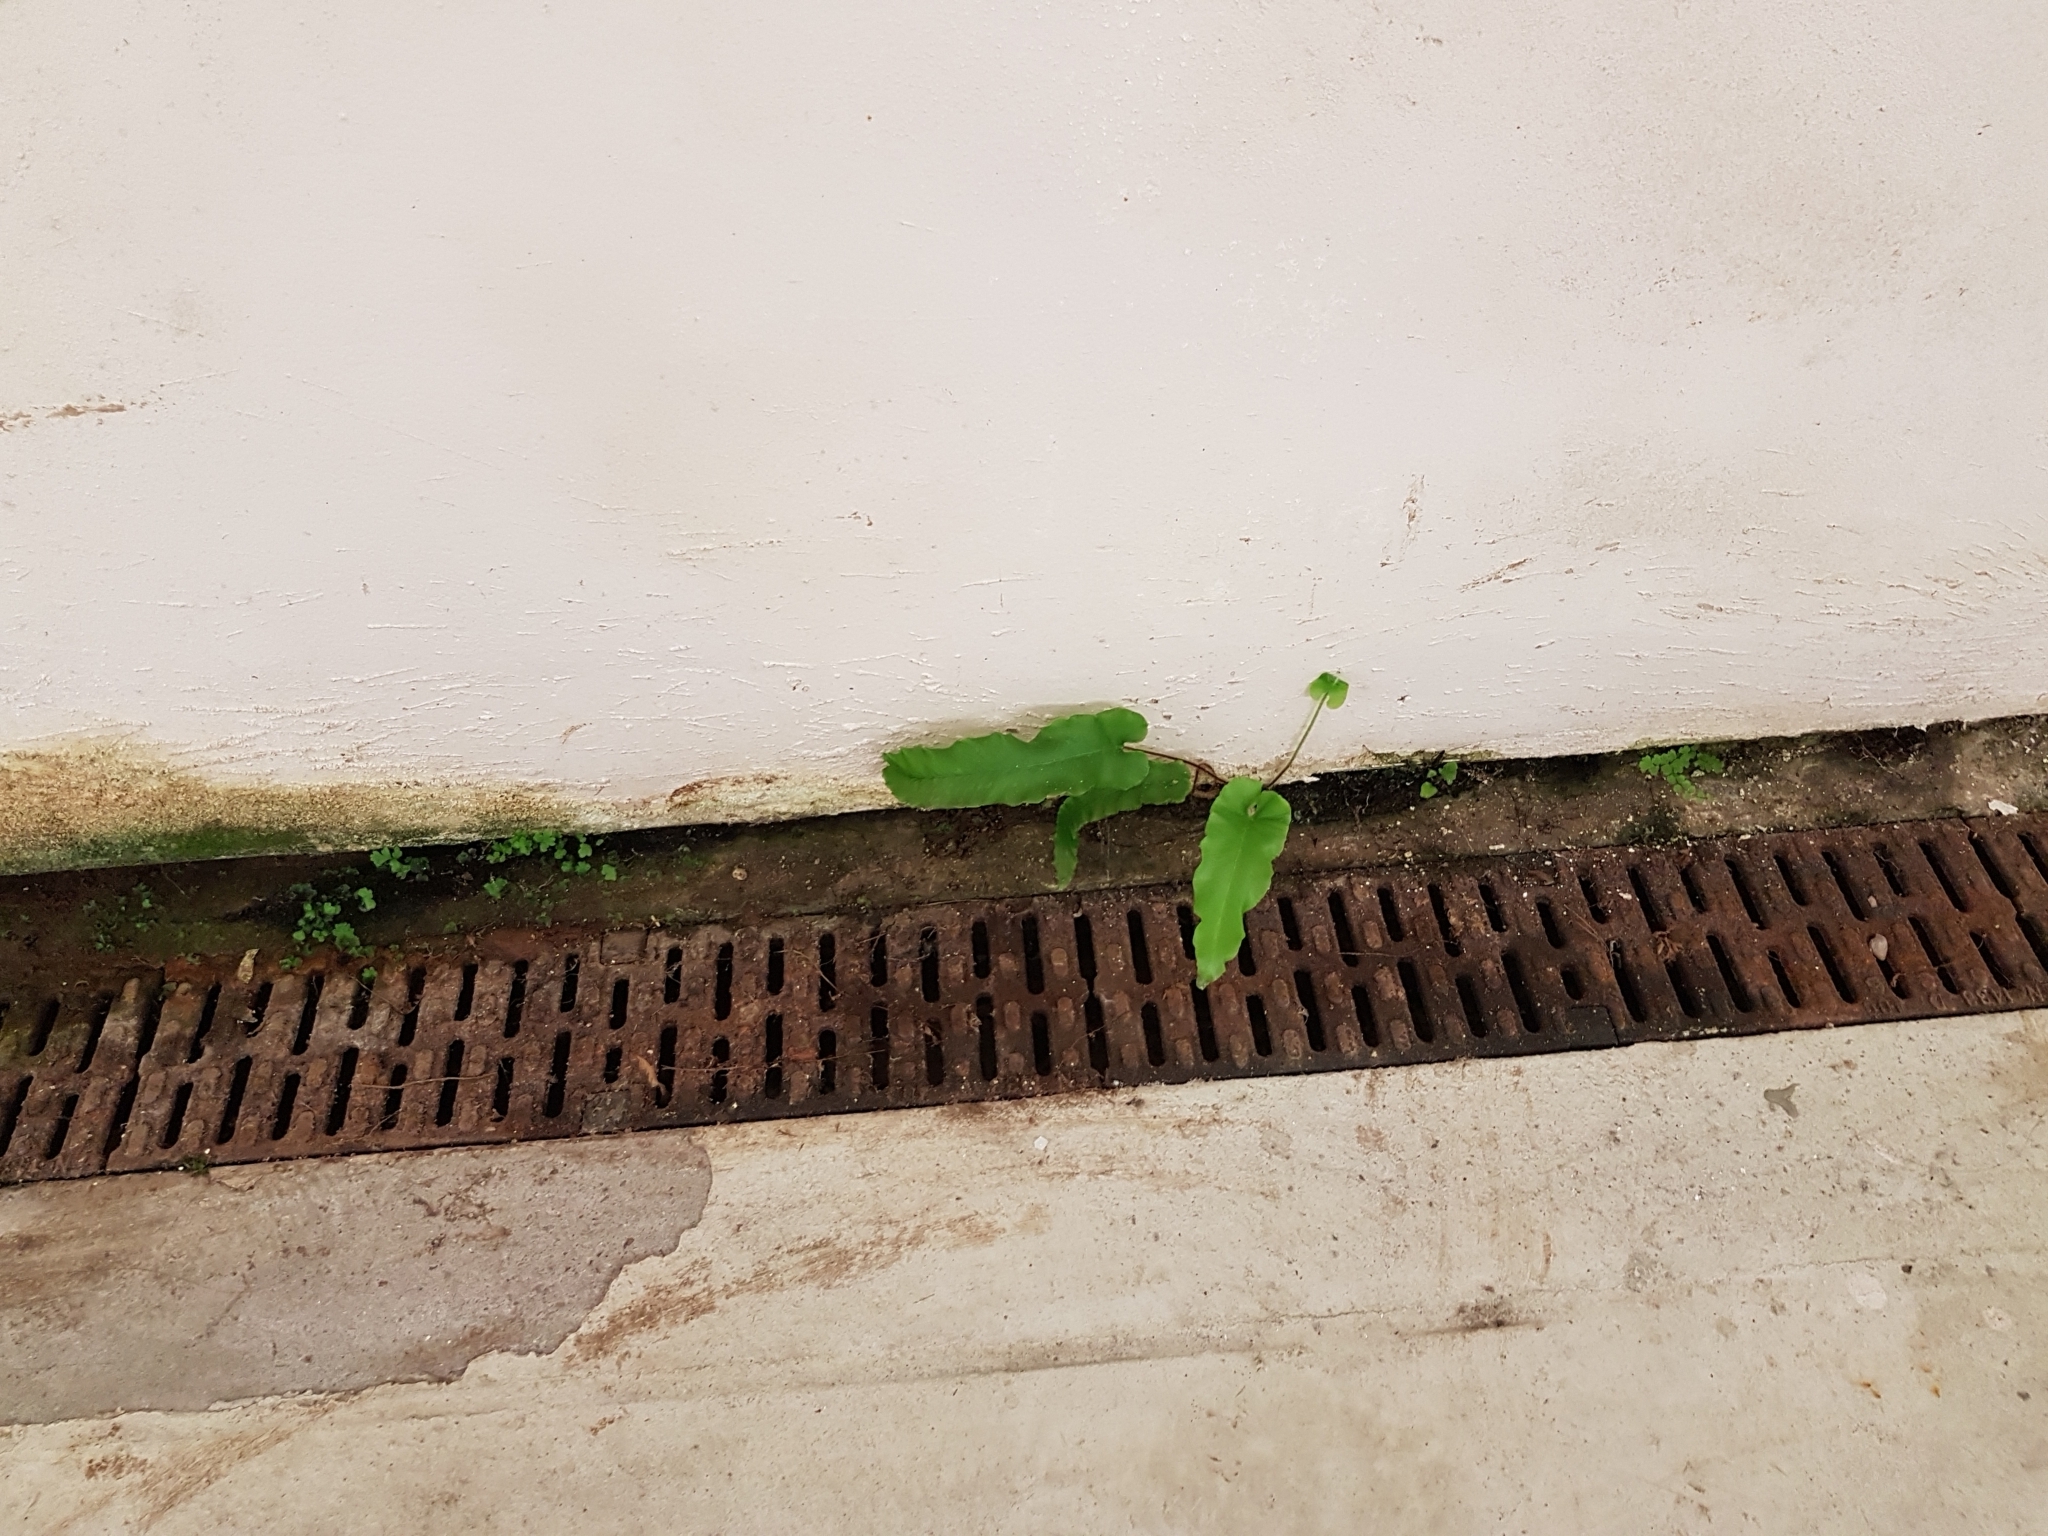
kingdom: Plantae
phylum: Tracheophyta
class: Polypodiopsida
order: Polypodiales
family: Aspleniaceae
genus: Asplenium
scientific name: Asplenium scolopendrium
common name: Hart's-tongue fern
